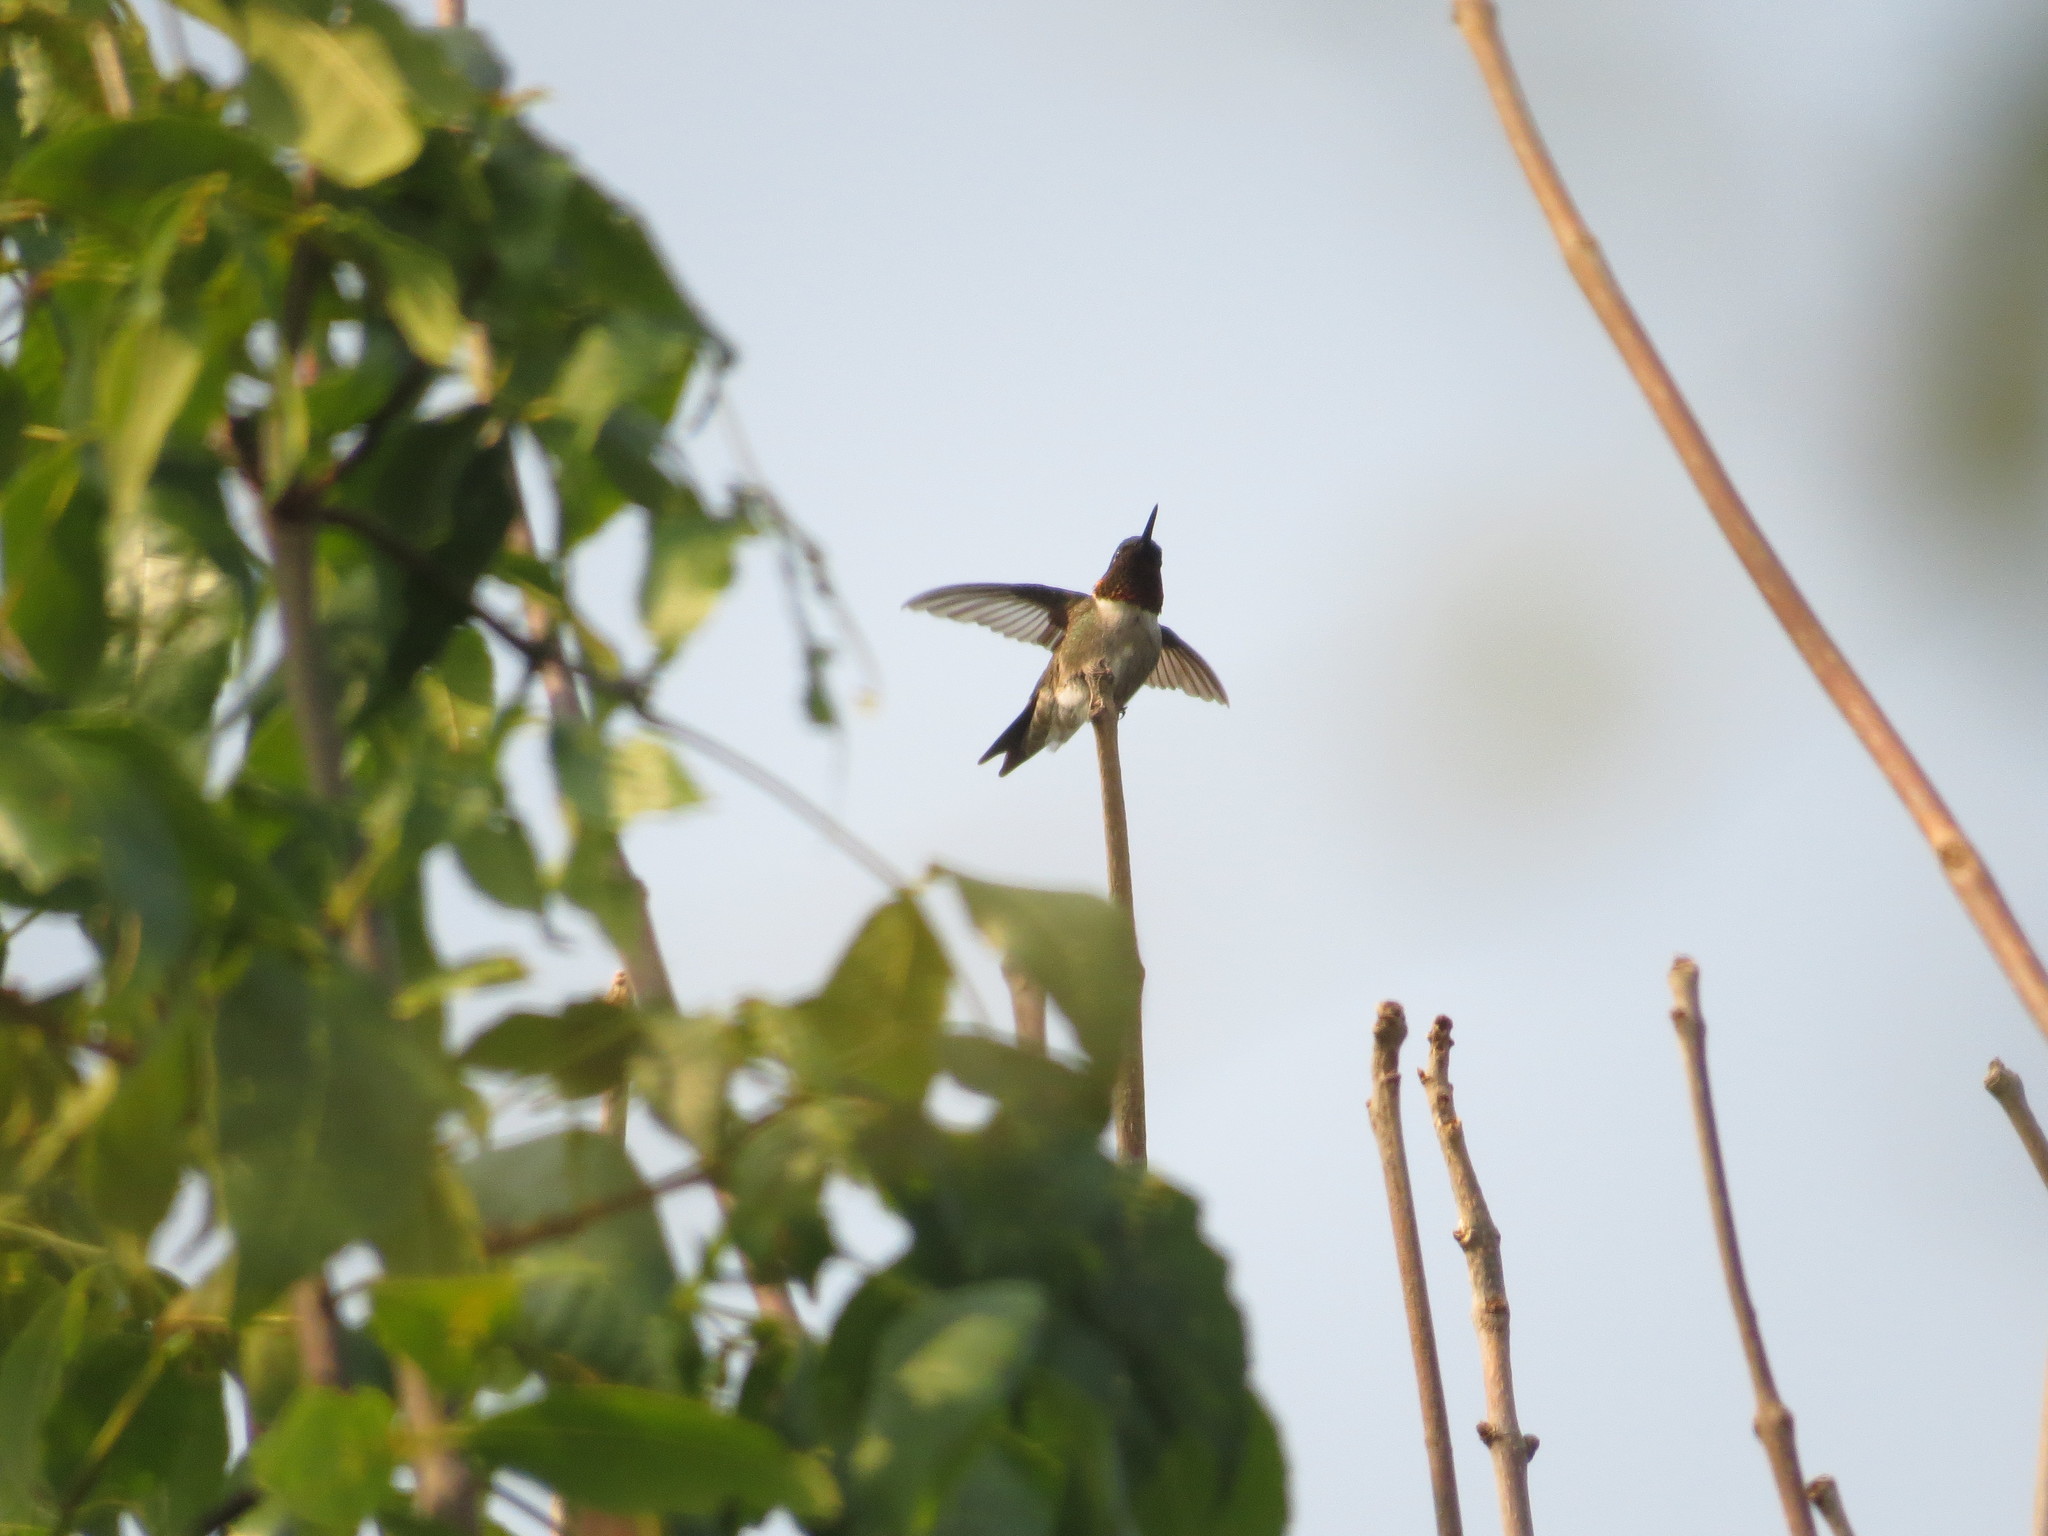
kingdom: Animalia
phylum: Chordata
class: Aves
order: Apodiformes
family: Trochilidae
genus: Archilochus
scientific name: Archilochus colubris
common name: Ruby-throated hummingbird
